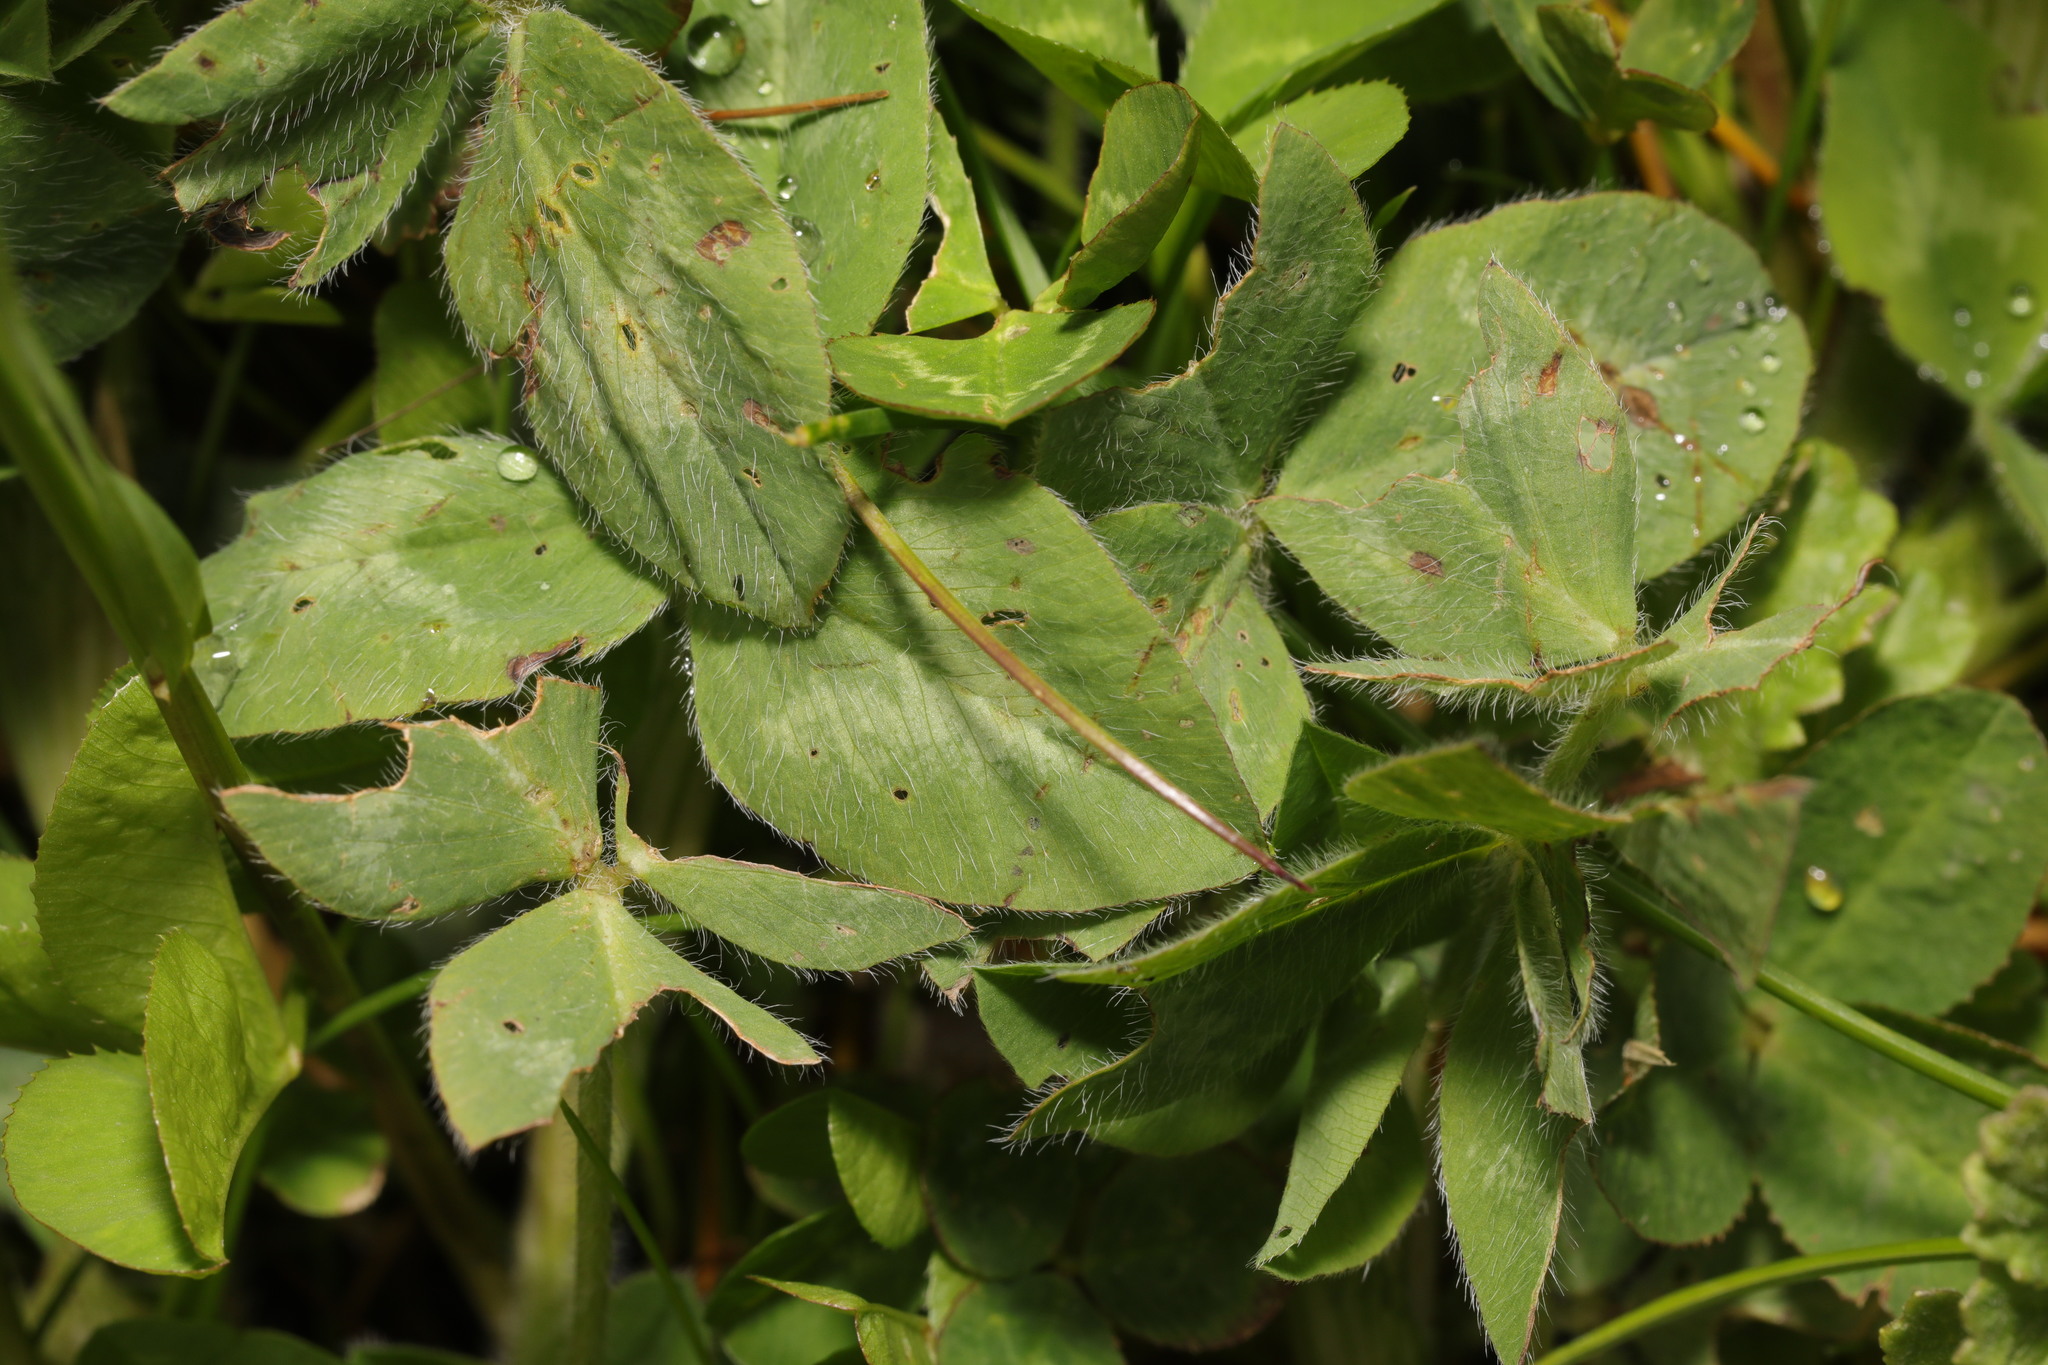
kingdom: Plantae
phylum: Tracheophyta
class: Magnoliopsida
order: Fabales
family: Fabaceae
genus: Trifolium
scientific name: Trifolium pratense
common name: Red clover
